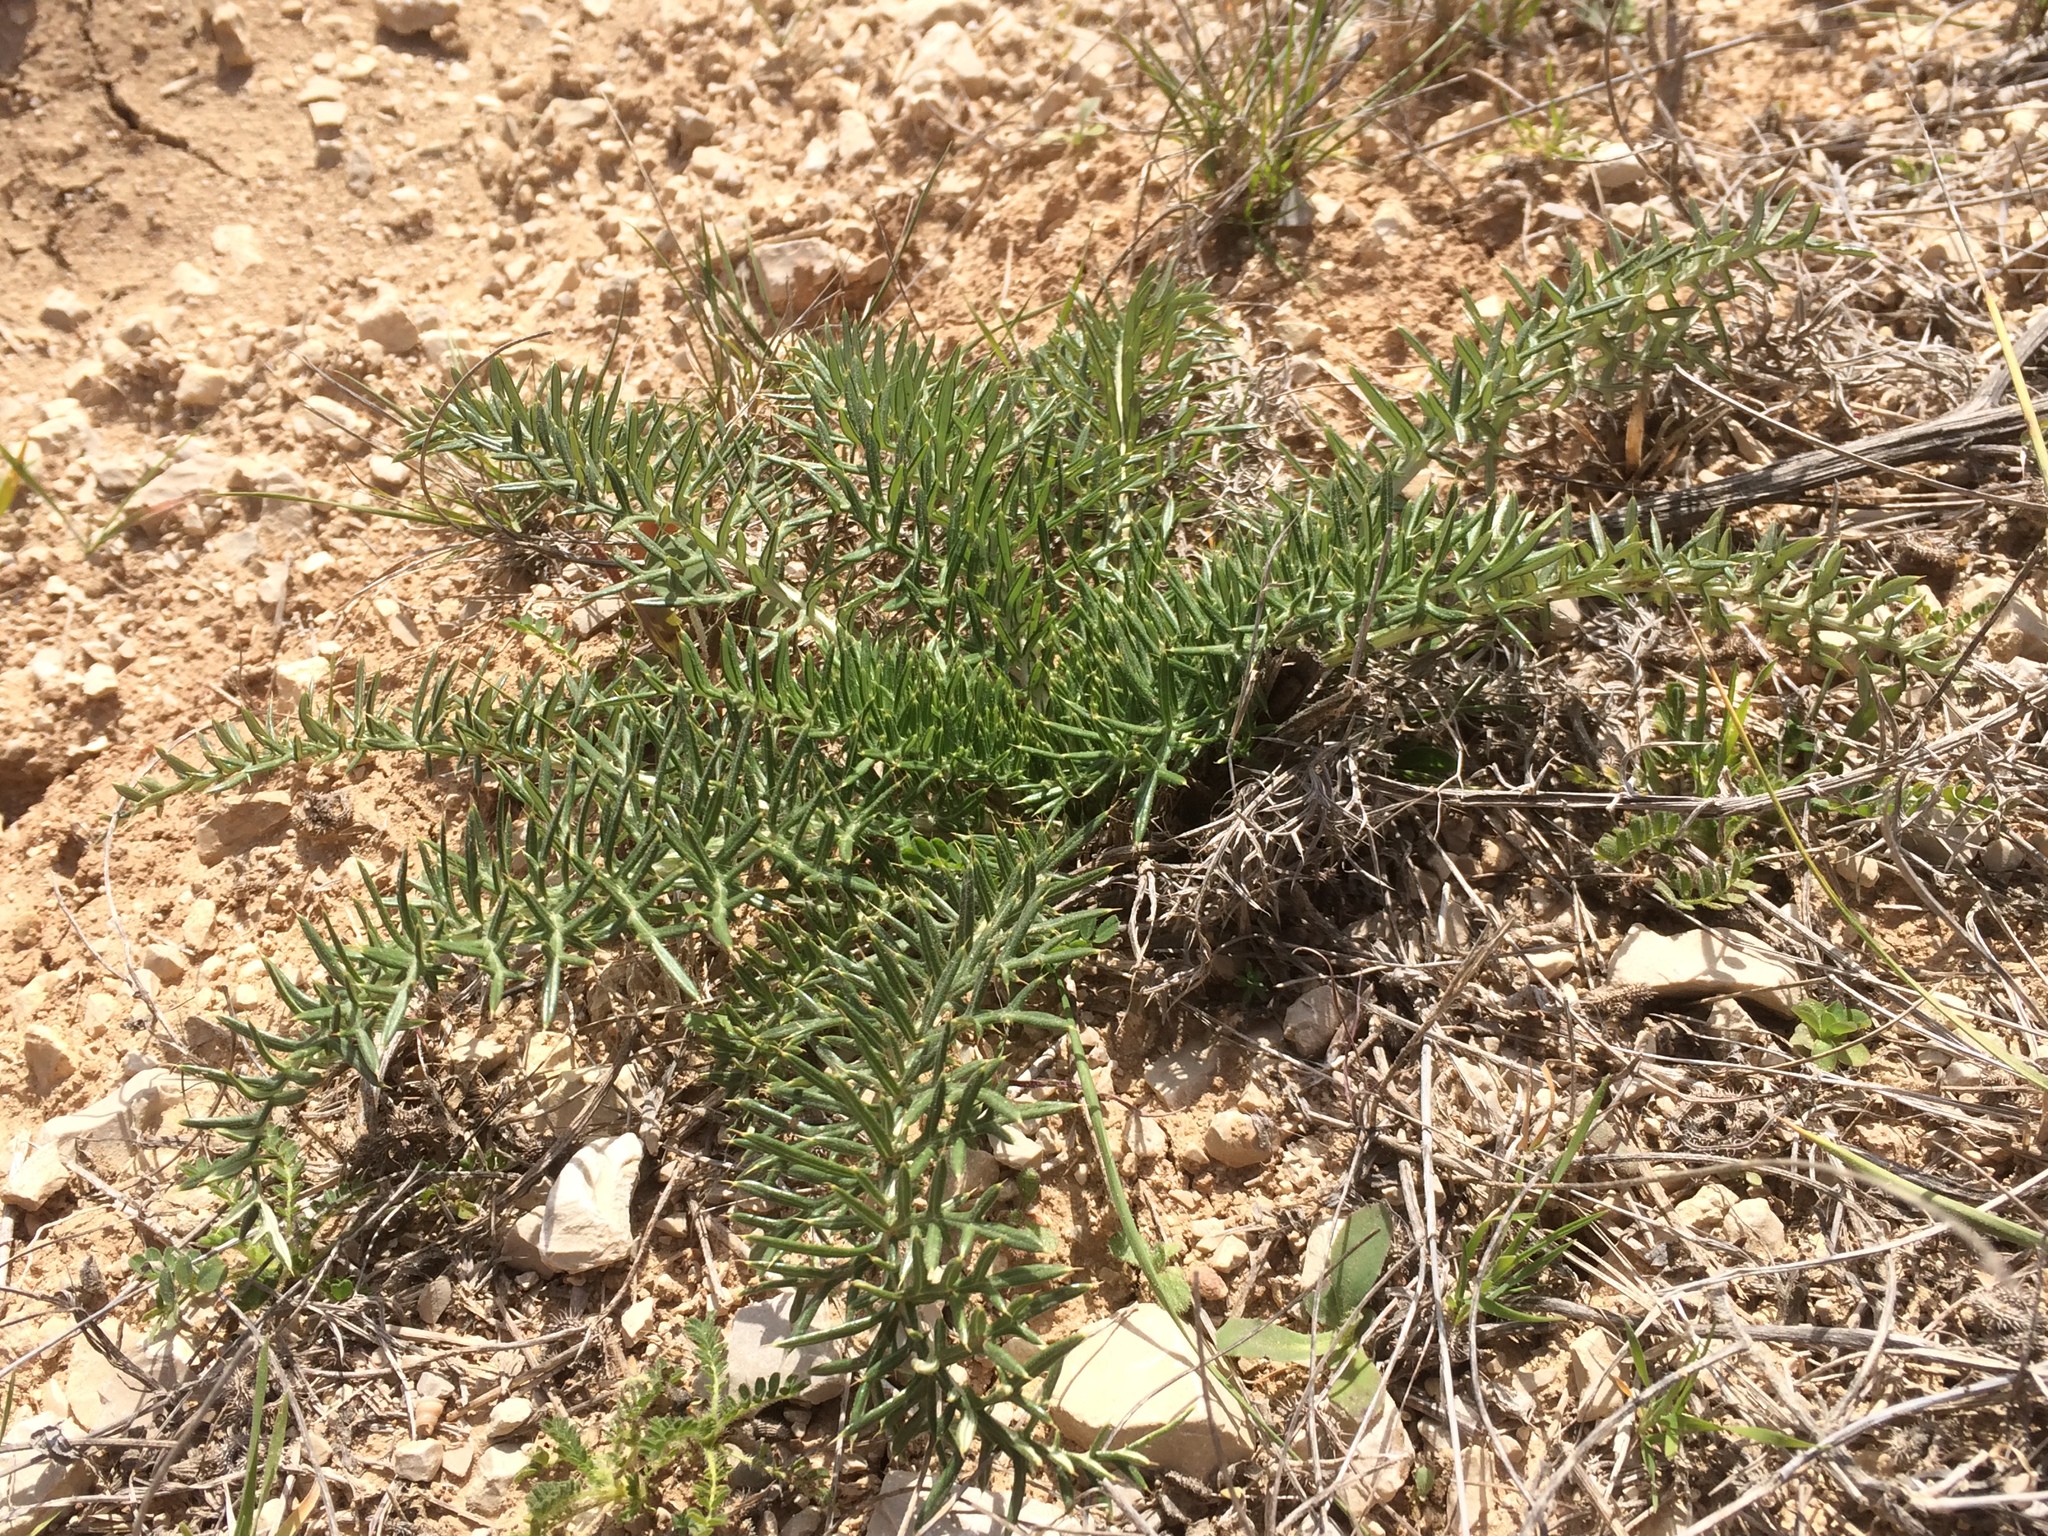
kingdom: Plantae
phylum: Tracheophyta
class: Magnoliopsida
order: Asterales
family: Asteraceae
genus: Cynara
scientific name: Cynara humilis
